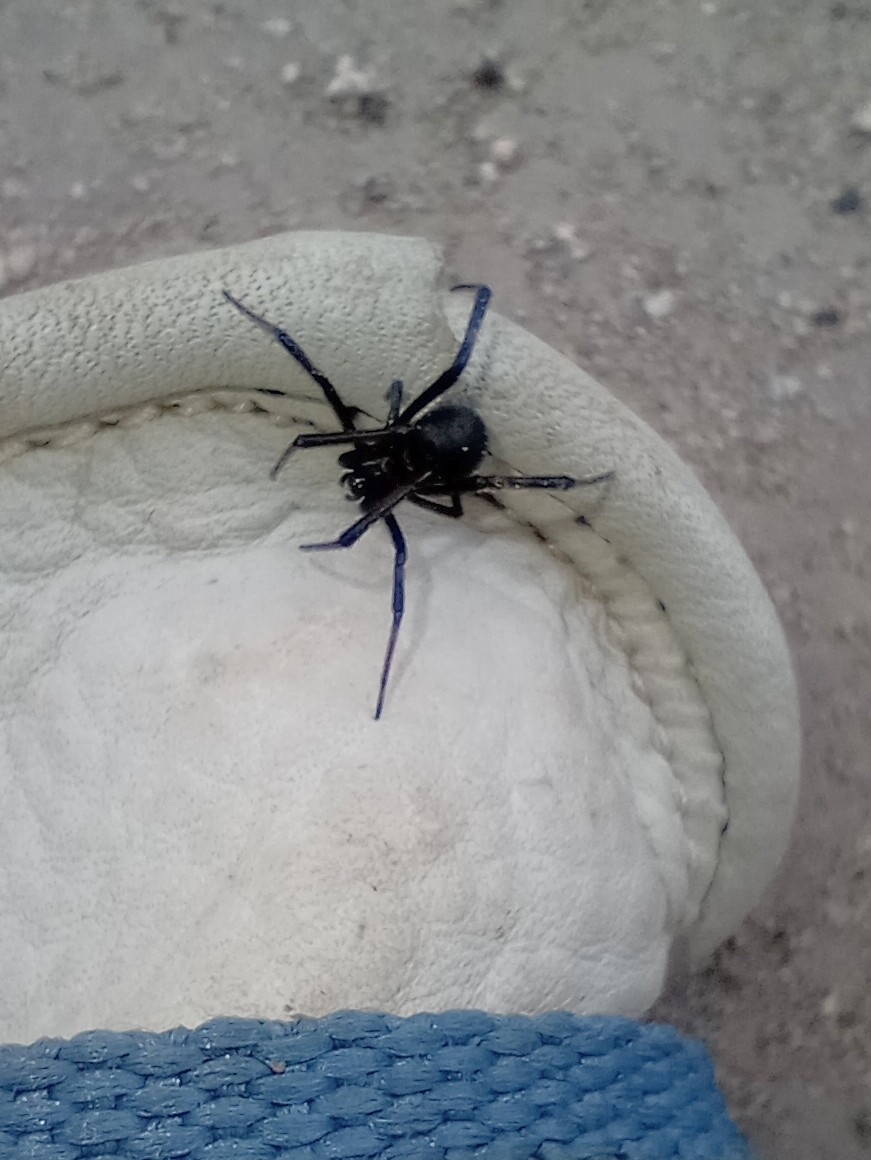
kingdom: Animalia
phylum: Arthropoda
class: Arachnida
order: Araneae
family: Theridiidae
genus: Latrodectus
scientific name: Latrodectus hesperus
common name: Western black widow
